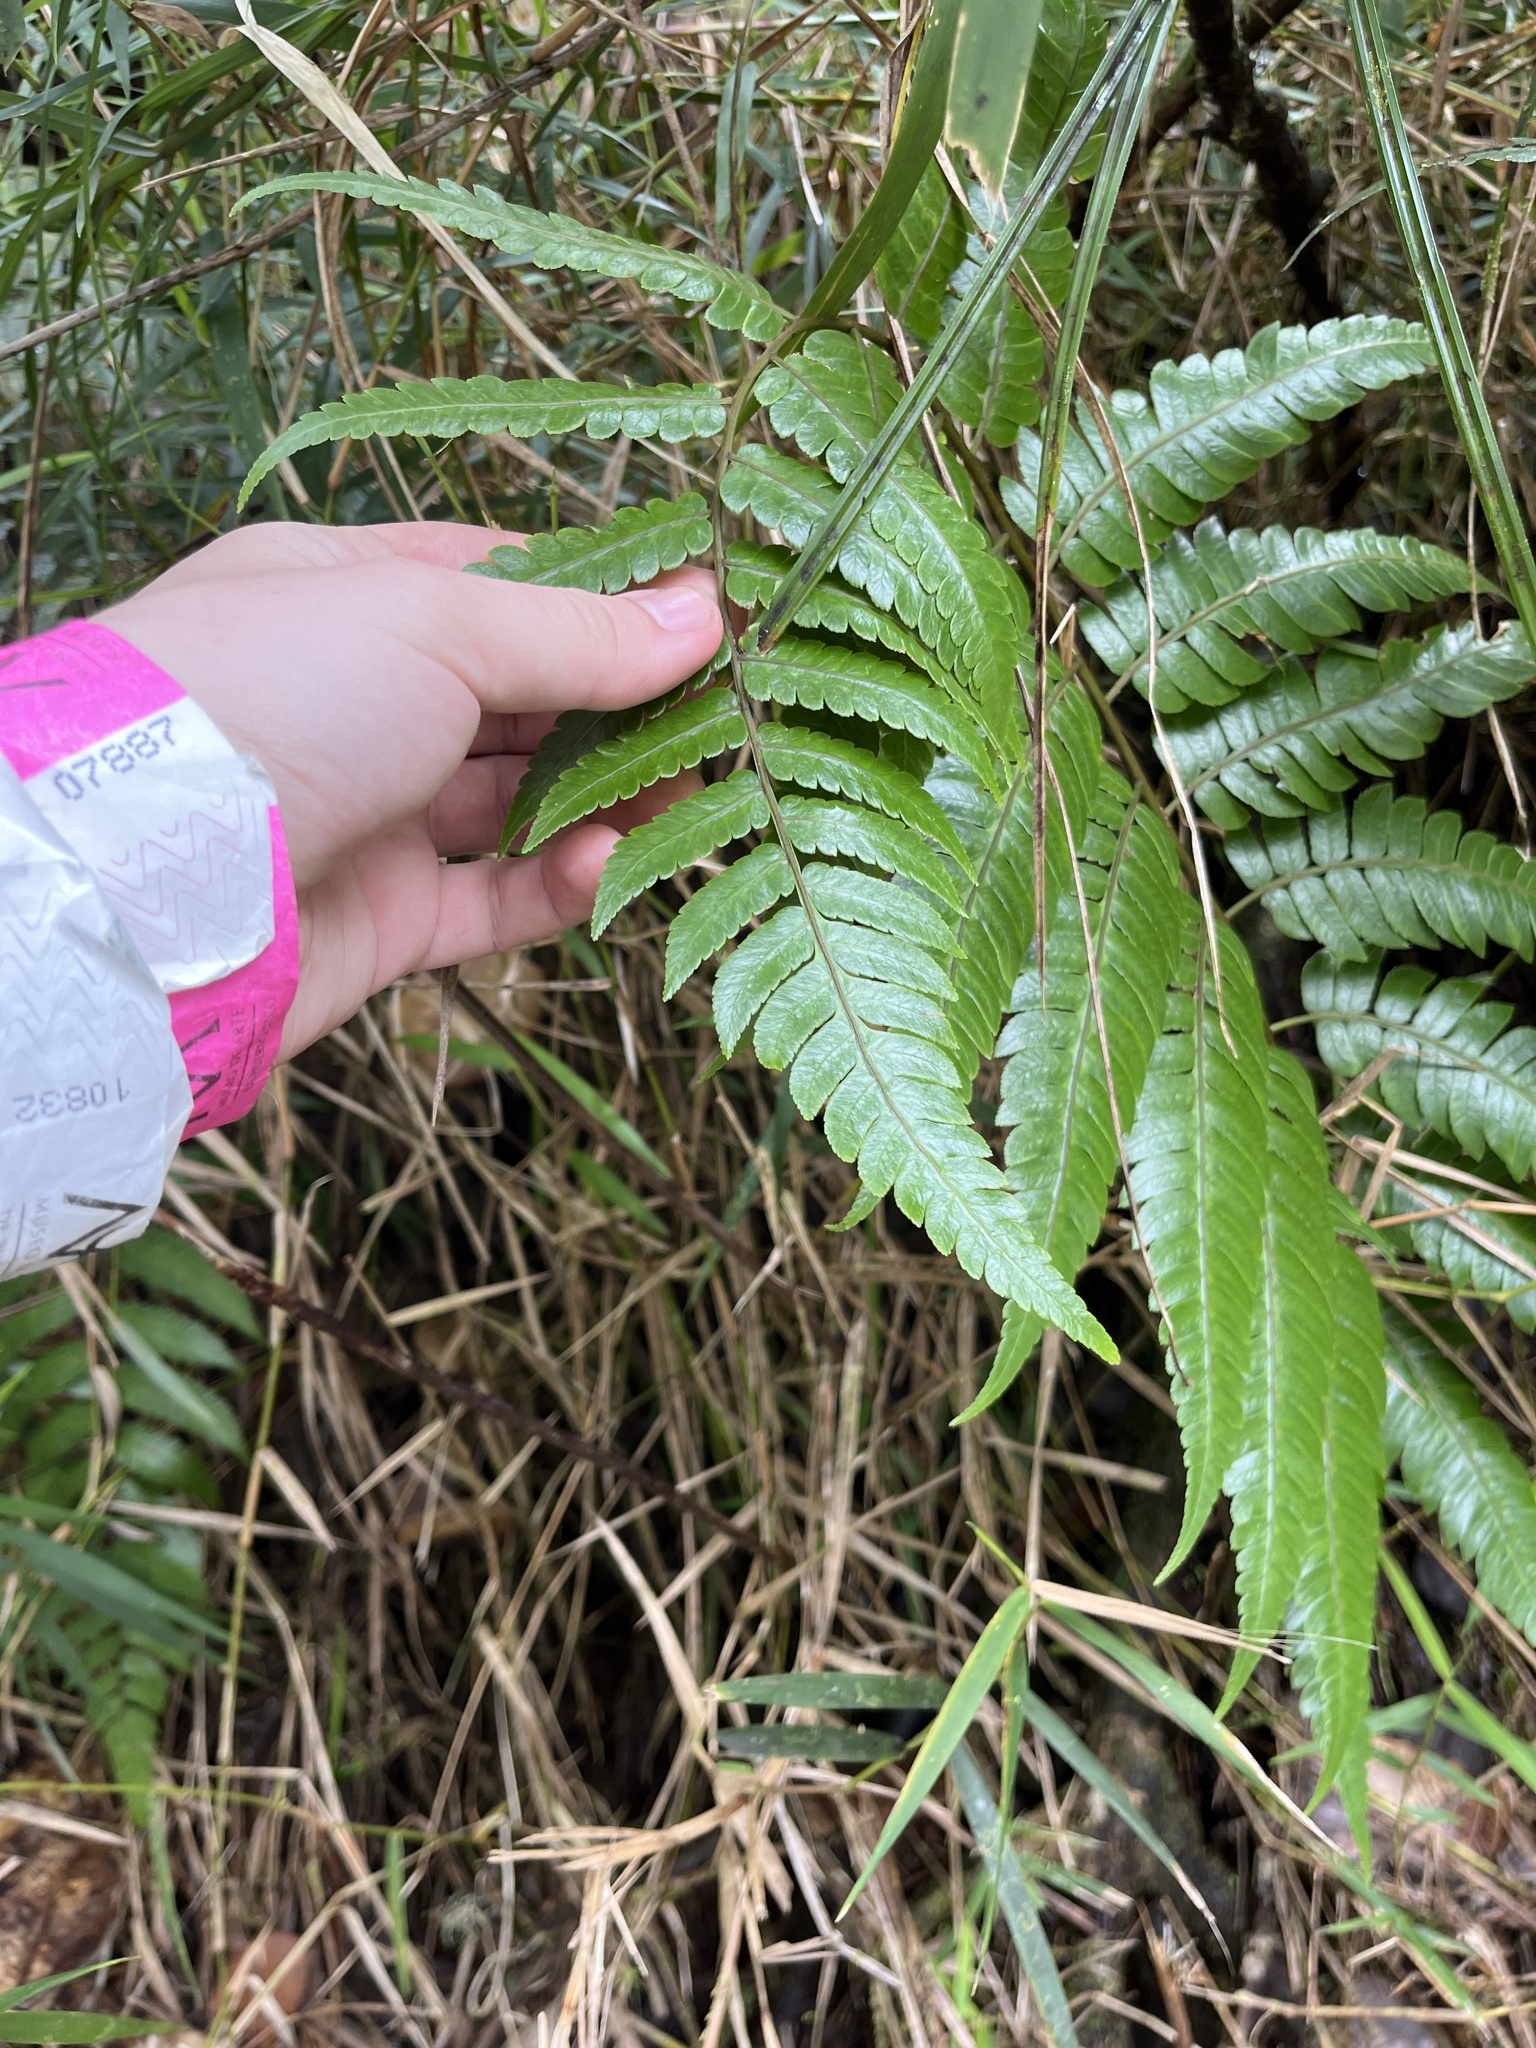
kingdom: Plantae
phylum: Tracheophyta
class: Polypodiopsida
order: Cyatheales
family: Cyatheaceae
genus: Cyathea
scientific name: Cyathea borinquena
